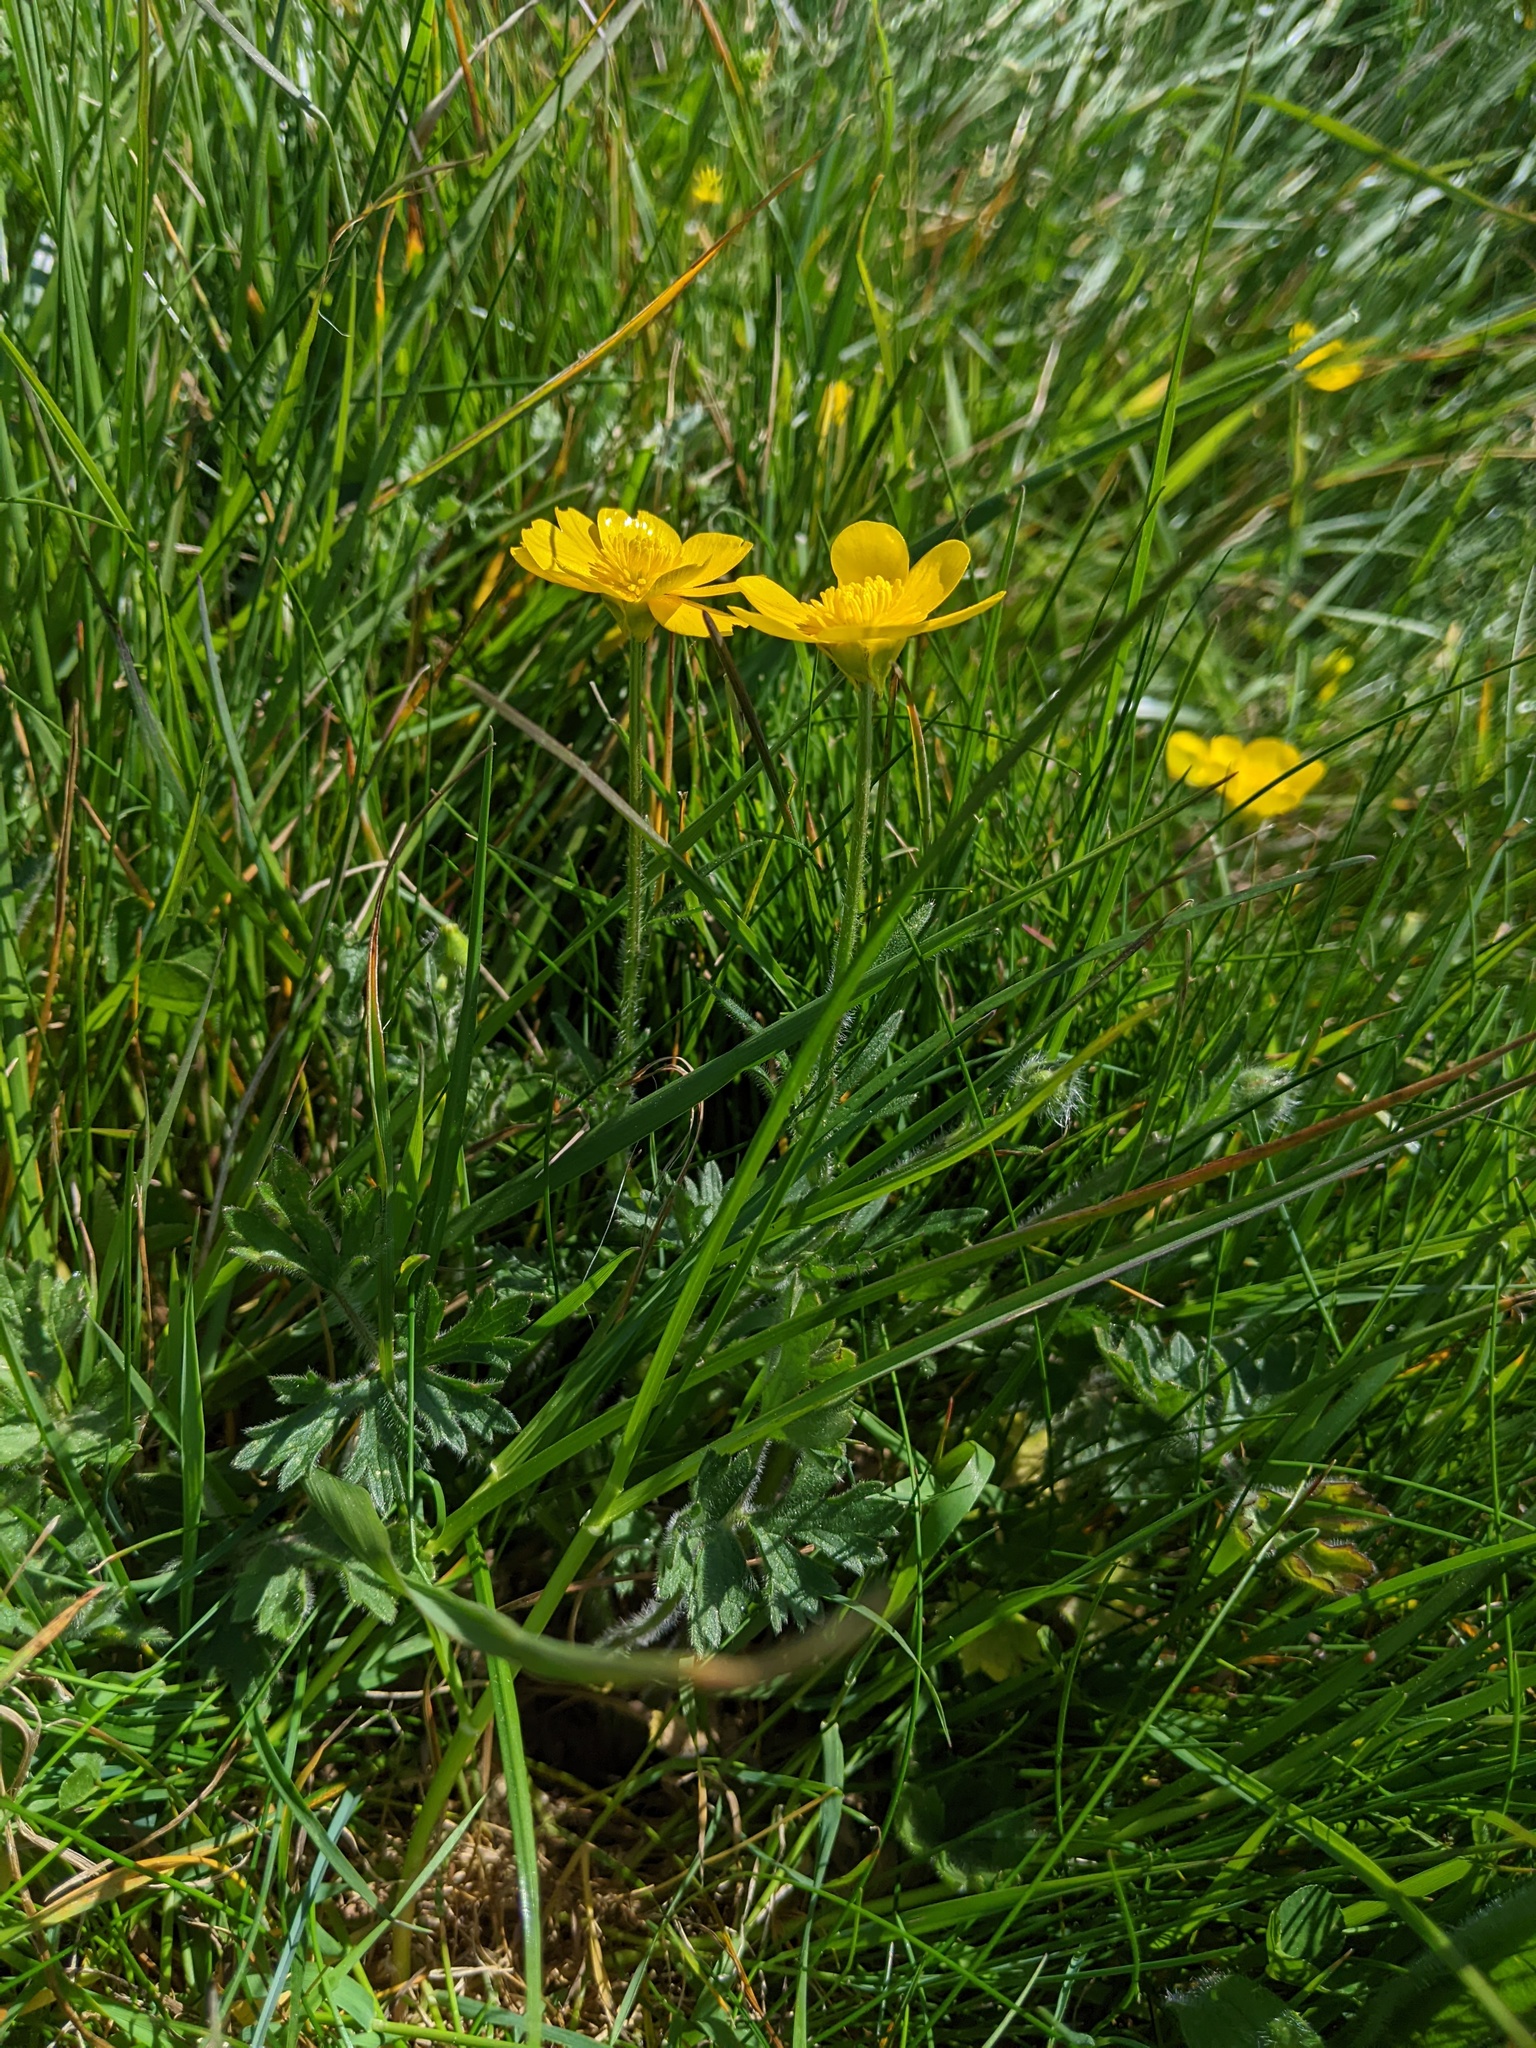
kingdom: Plantae
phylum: Tracheophyta
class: Magnoliopsida
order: Ranunculales
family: Ranunculaceae
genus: Ranunculus
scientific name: Ranunculus bulbosus
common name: Bulbous buttercup
